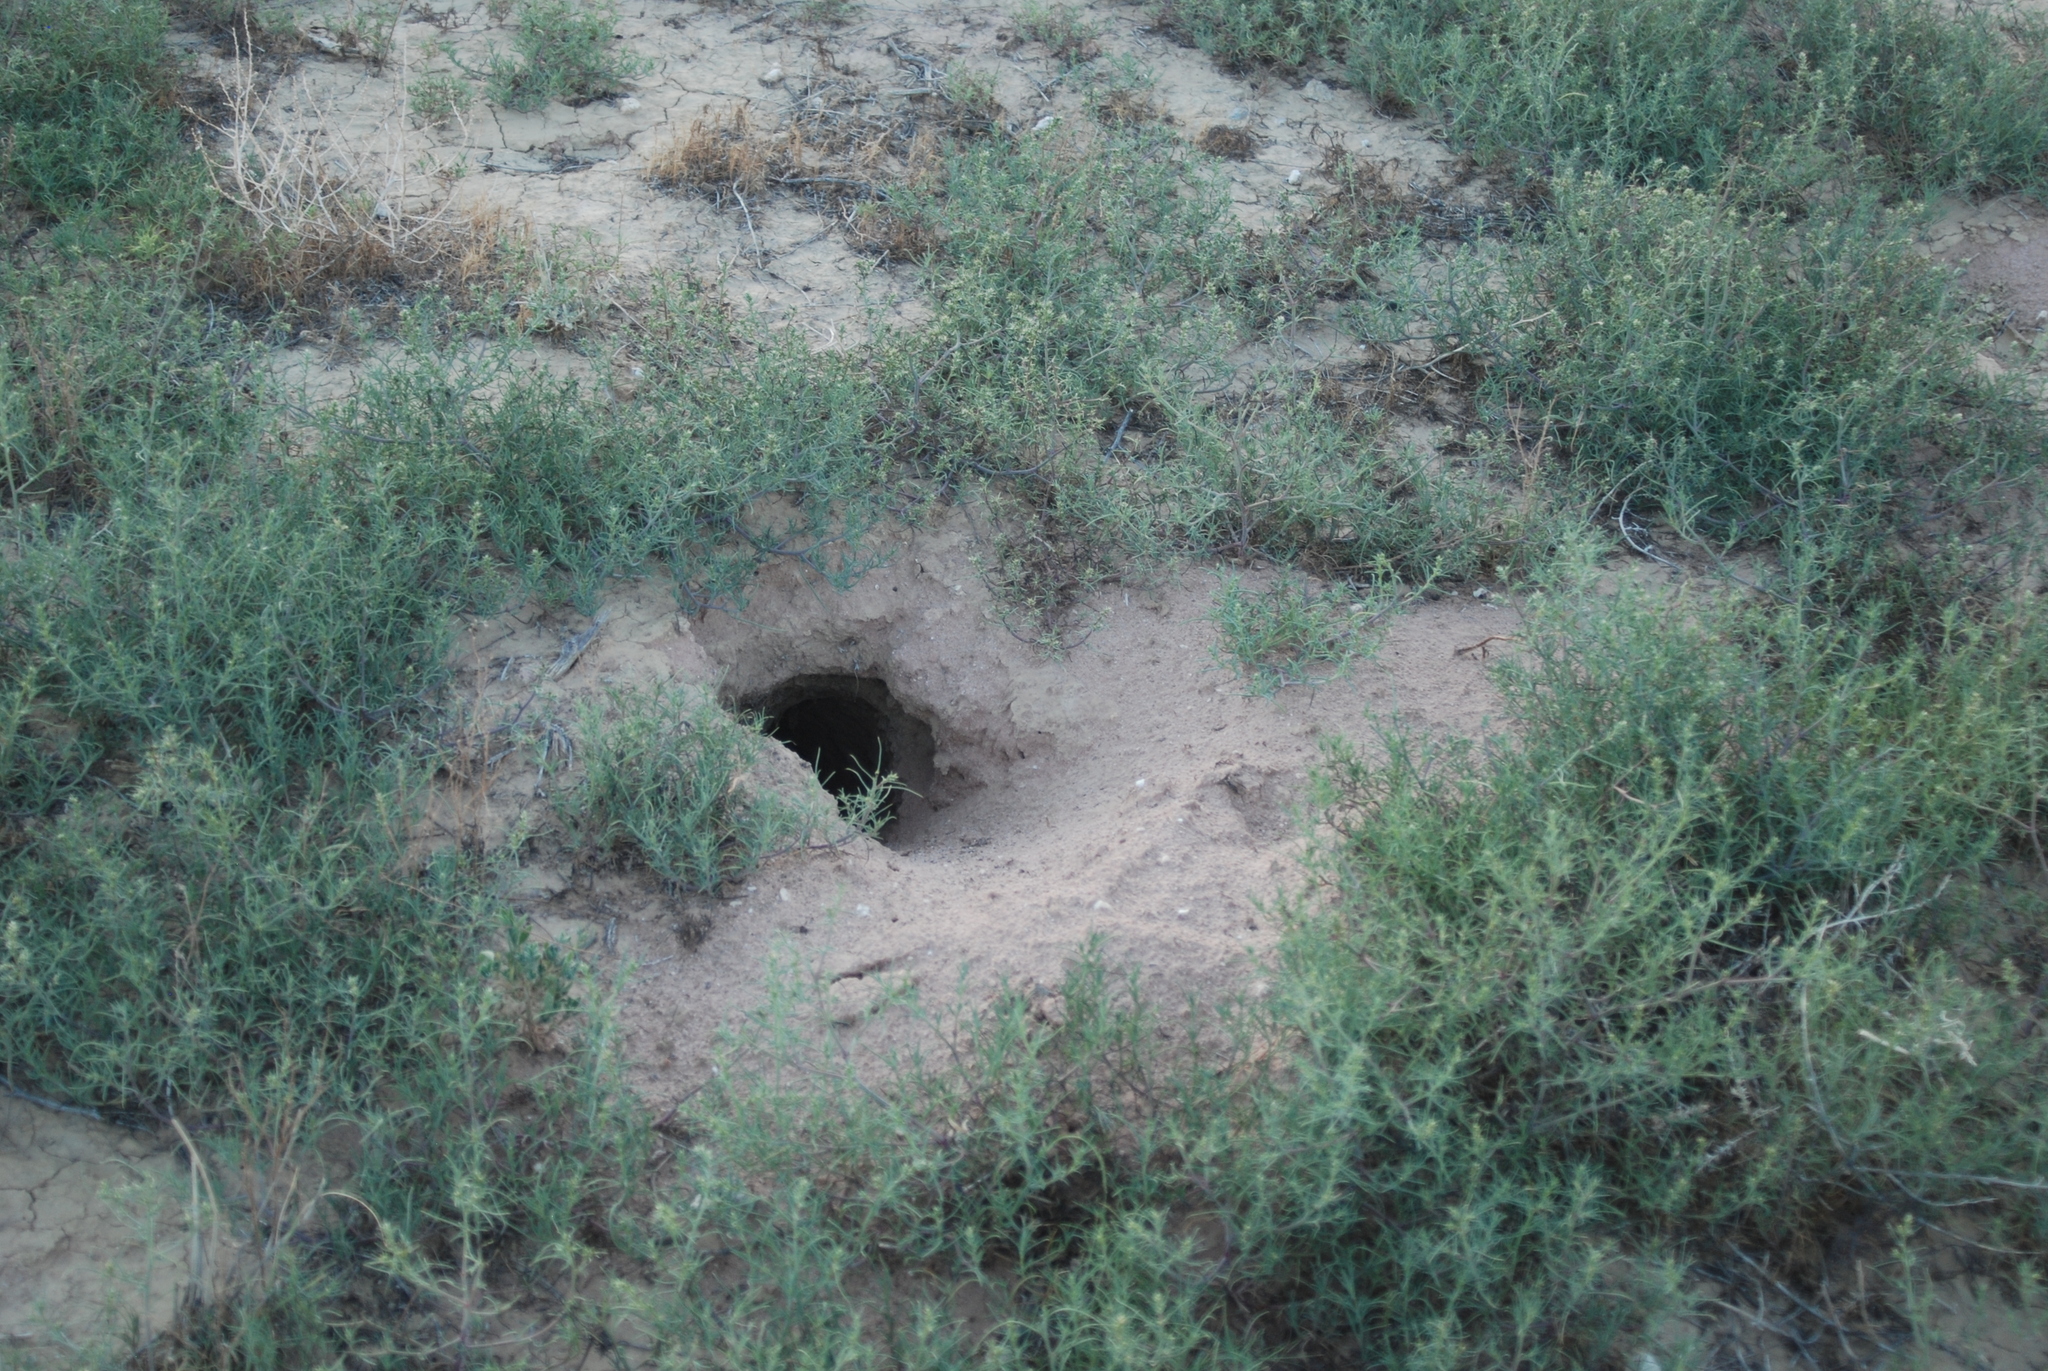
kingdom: Animalia
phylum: Chordata
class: Mammalia
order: Rodentia
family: Sciuridae
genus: Cynomys
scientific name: Cynomys gunnisoni
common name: Gunnison's prairie dog
